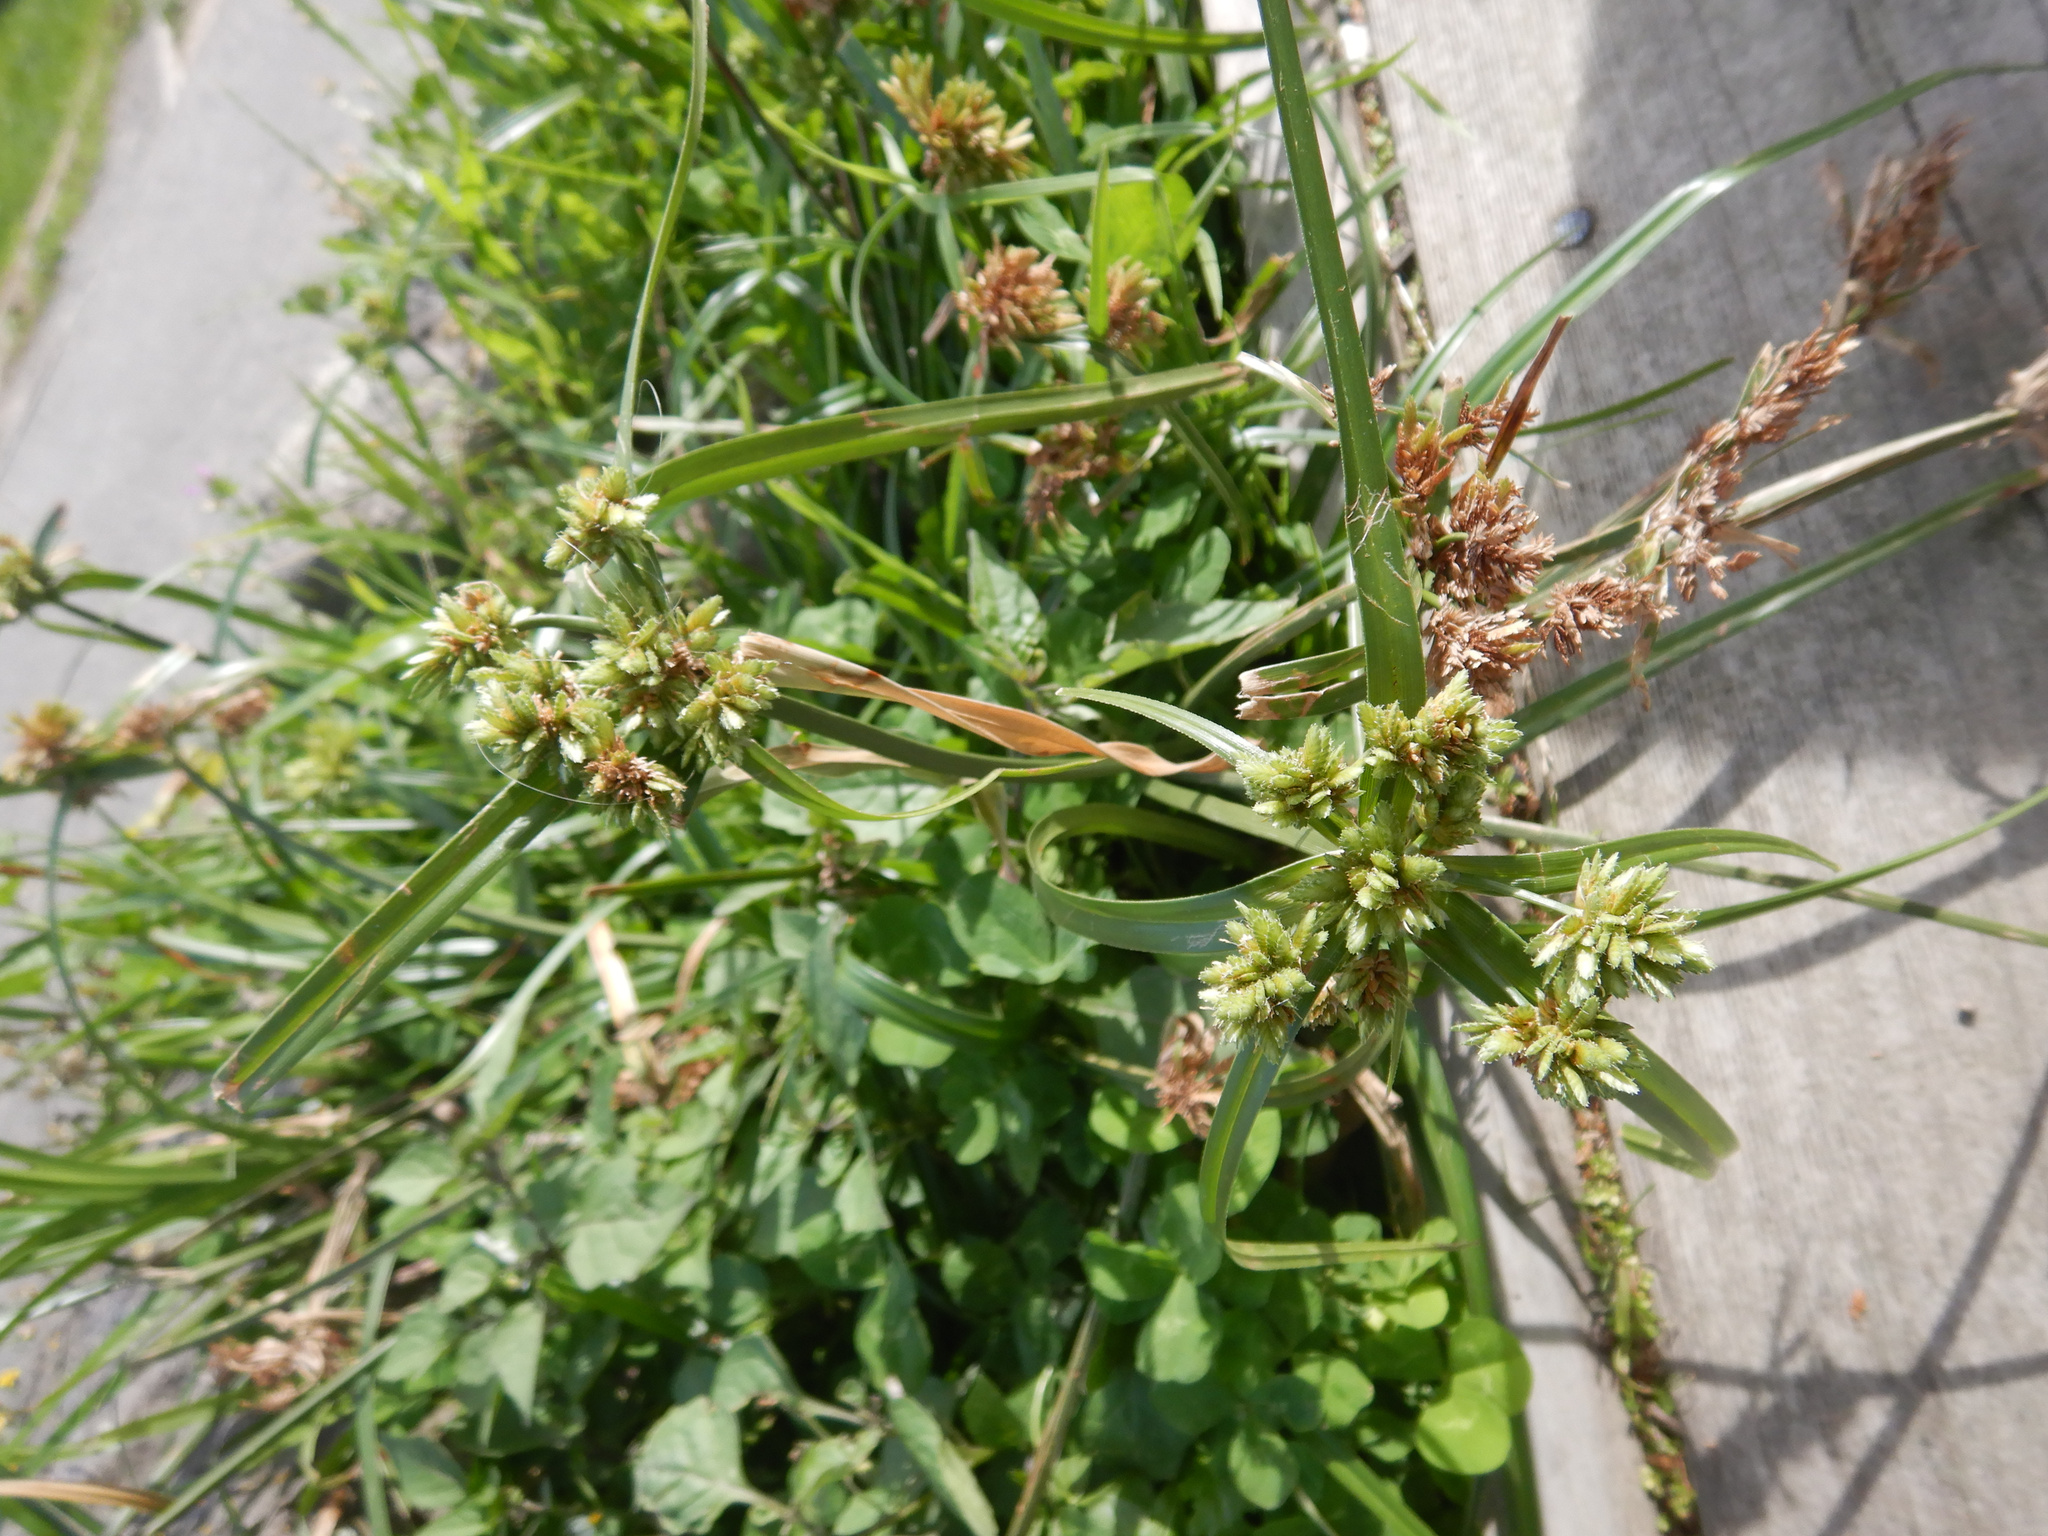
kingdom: Plantae
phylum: Tracheophyta
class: Liliopsida
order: Poales
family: Cyperaceae
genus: Cyperus
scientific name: Cyperus eragrostis
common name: Tall flatsedge
